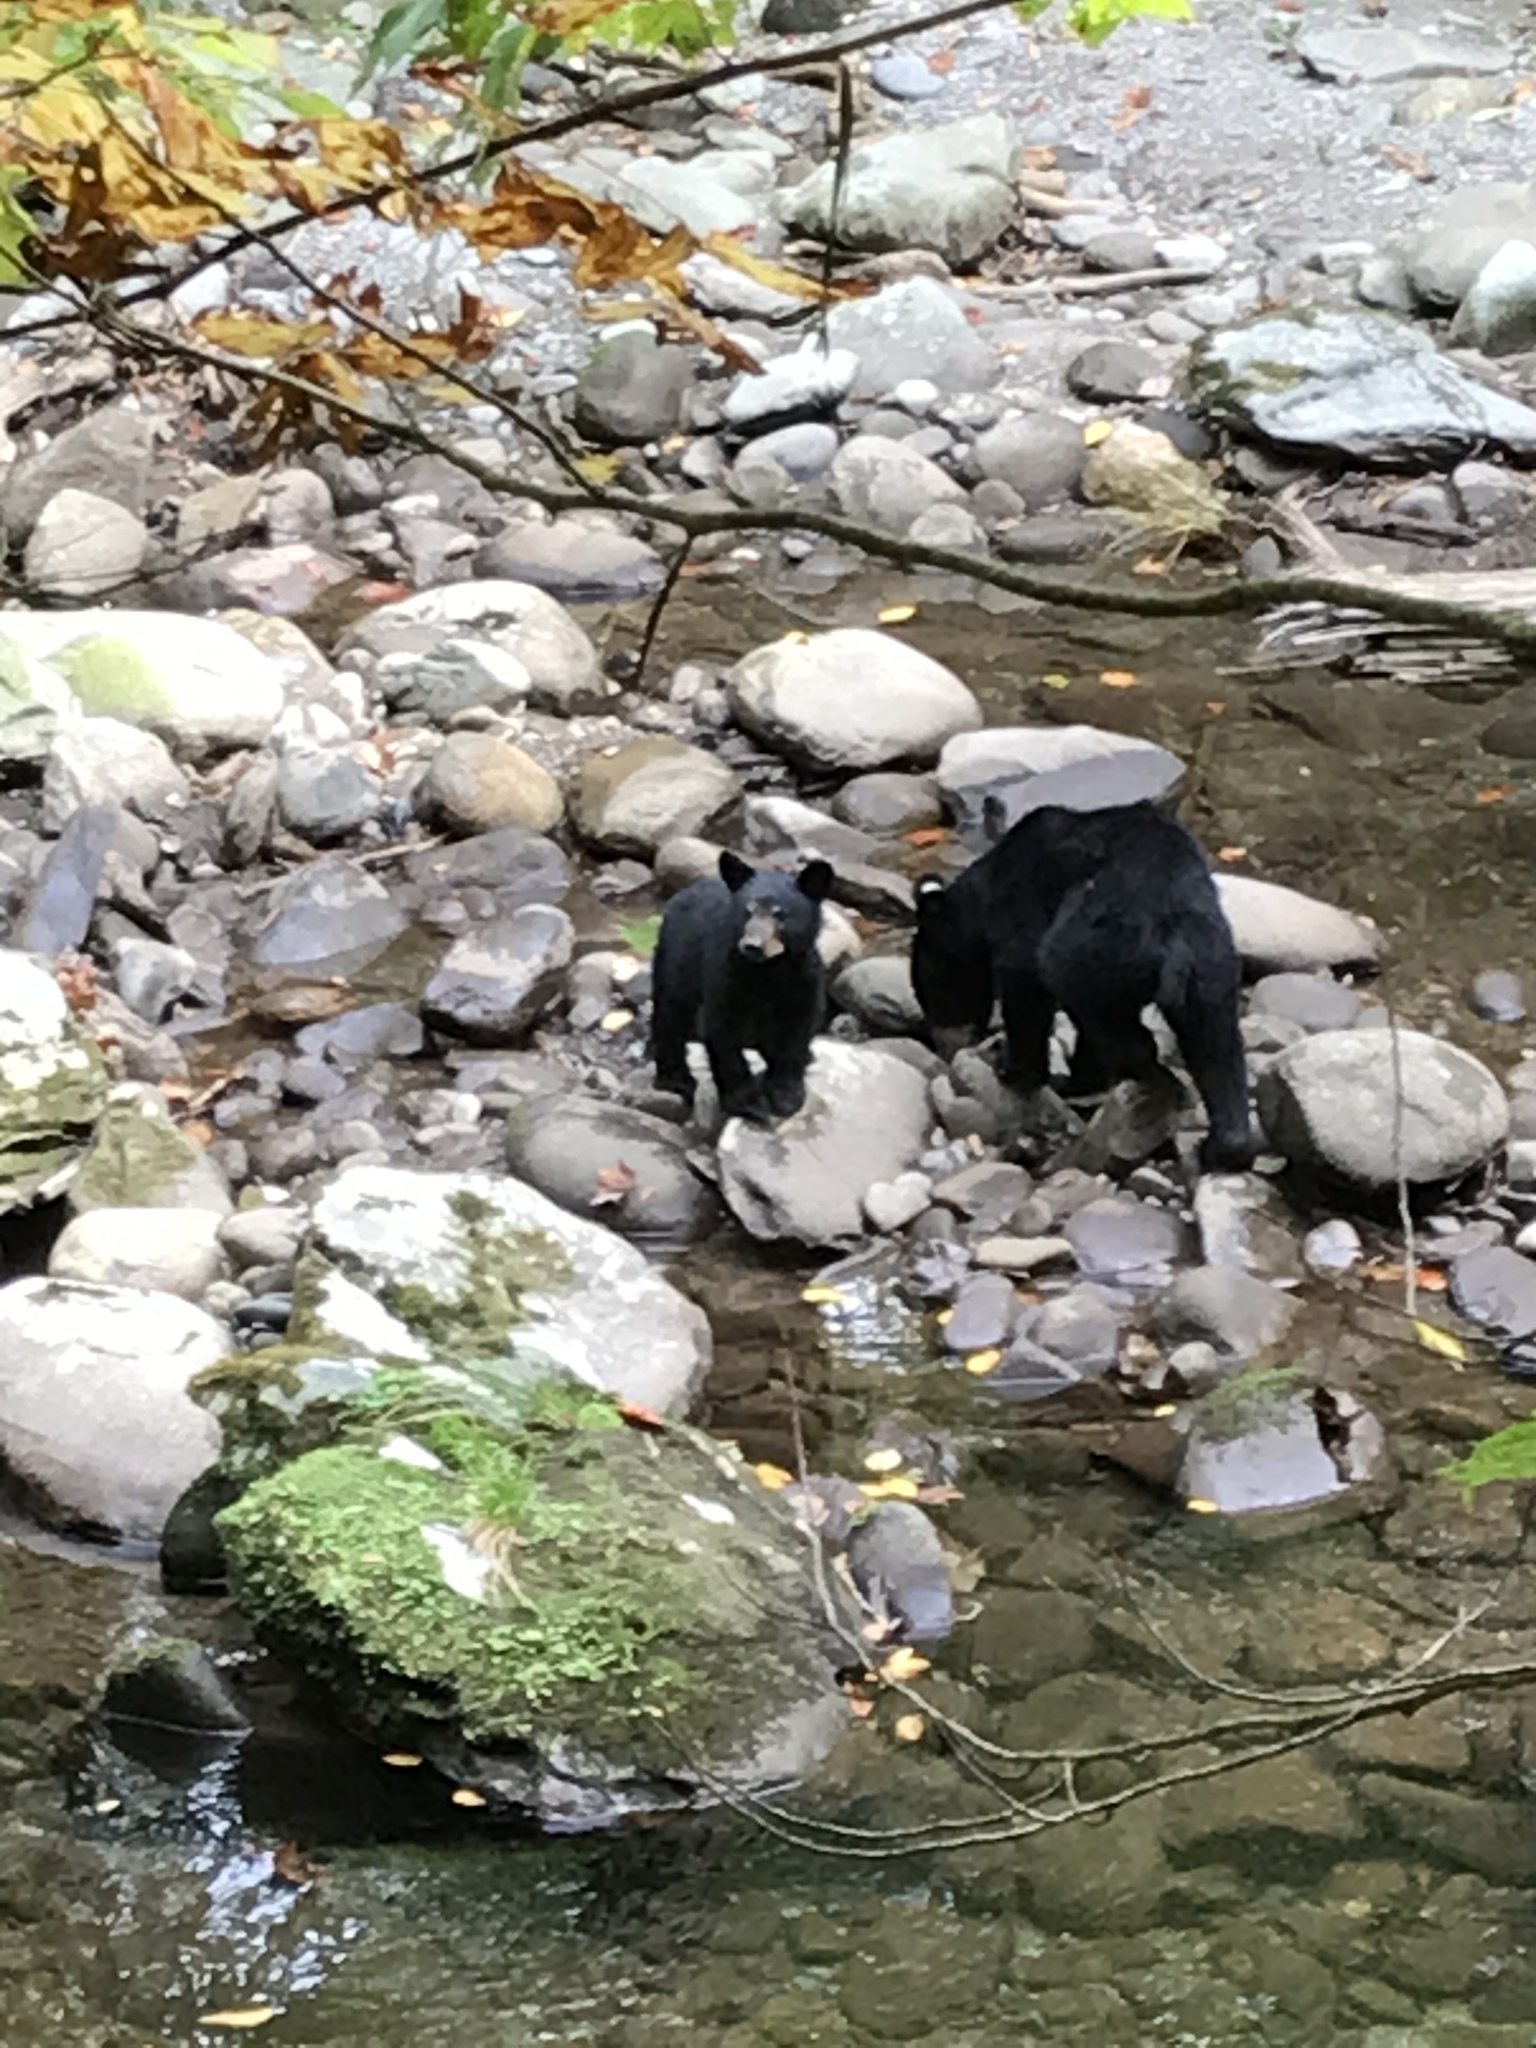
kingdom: Animalia
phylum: Chordata
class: Mammalia
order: Carnivora
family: Ursidae
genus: Ursus
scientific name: Ursus americanus
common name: American black bear
